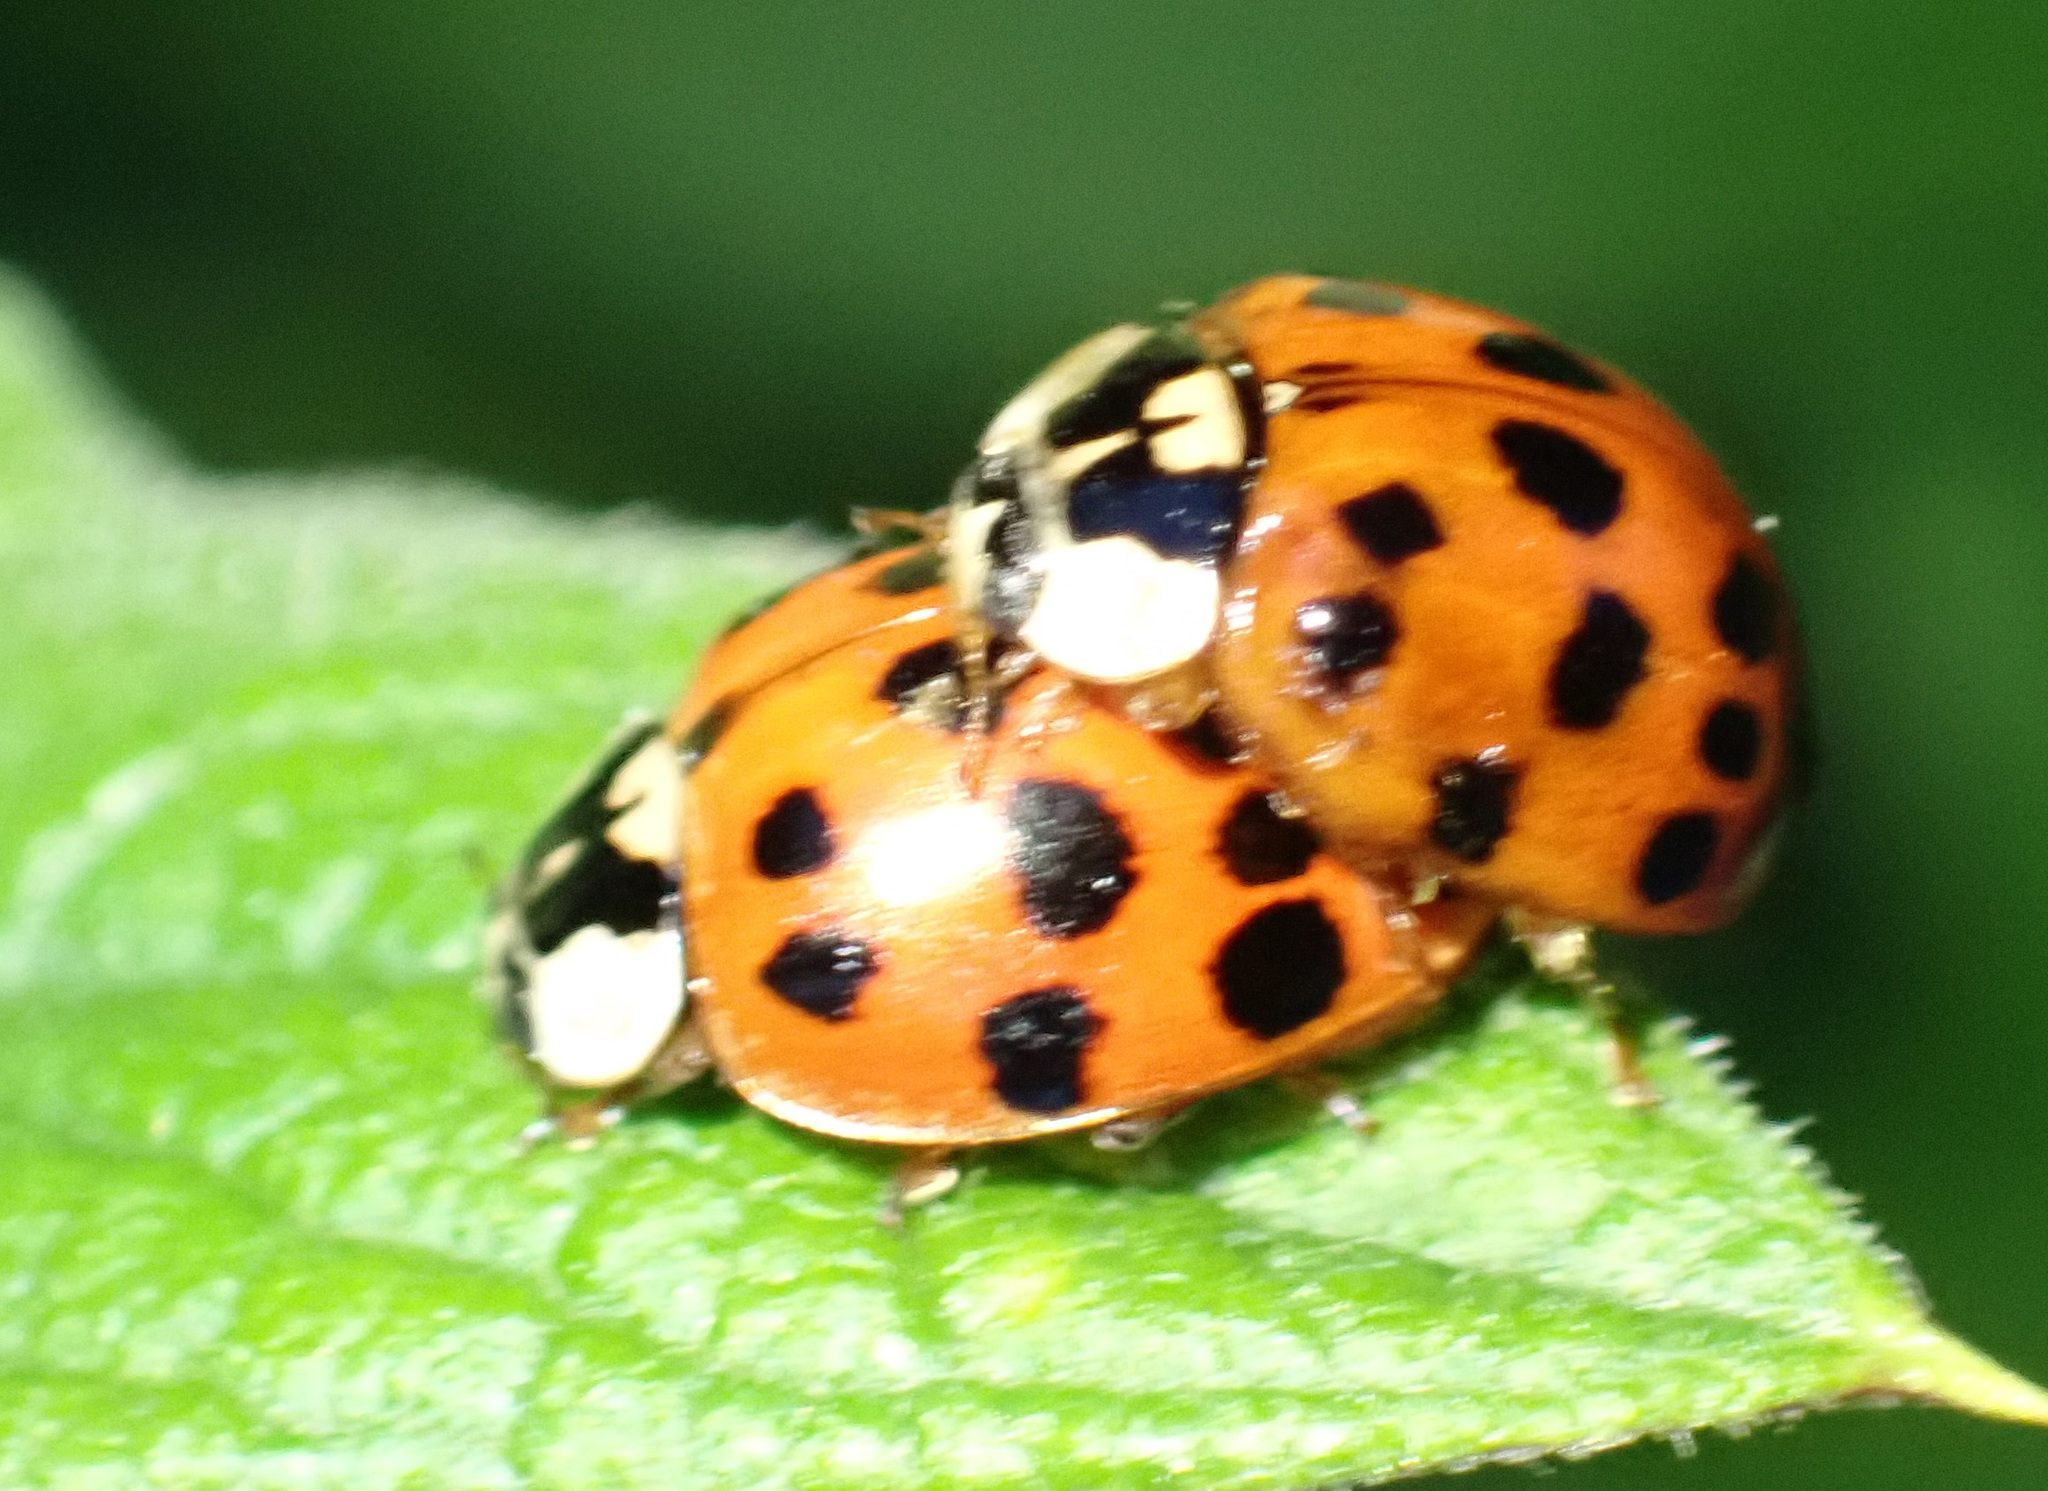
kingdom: Animalia
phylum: Arthropoda
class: Insecta
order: Coleoptera
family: Coccinellidae
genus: Harmonia
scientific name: Harmonia axyridis
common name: Harlequin ladybird
